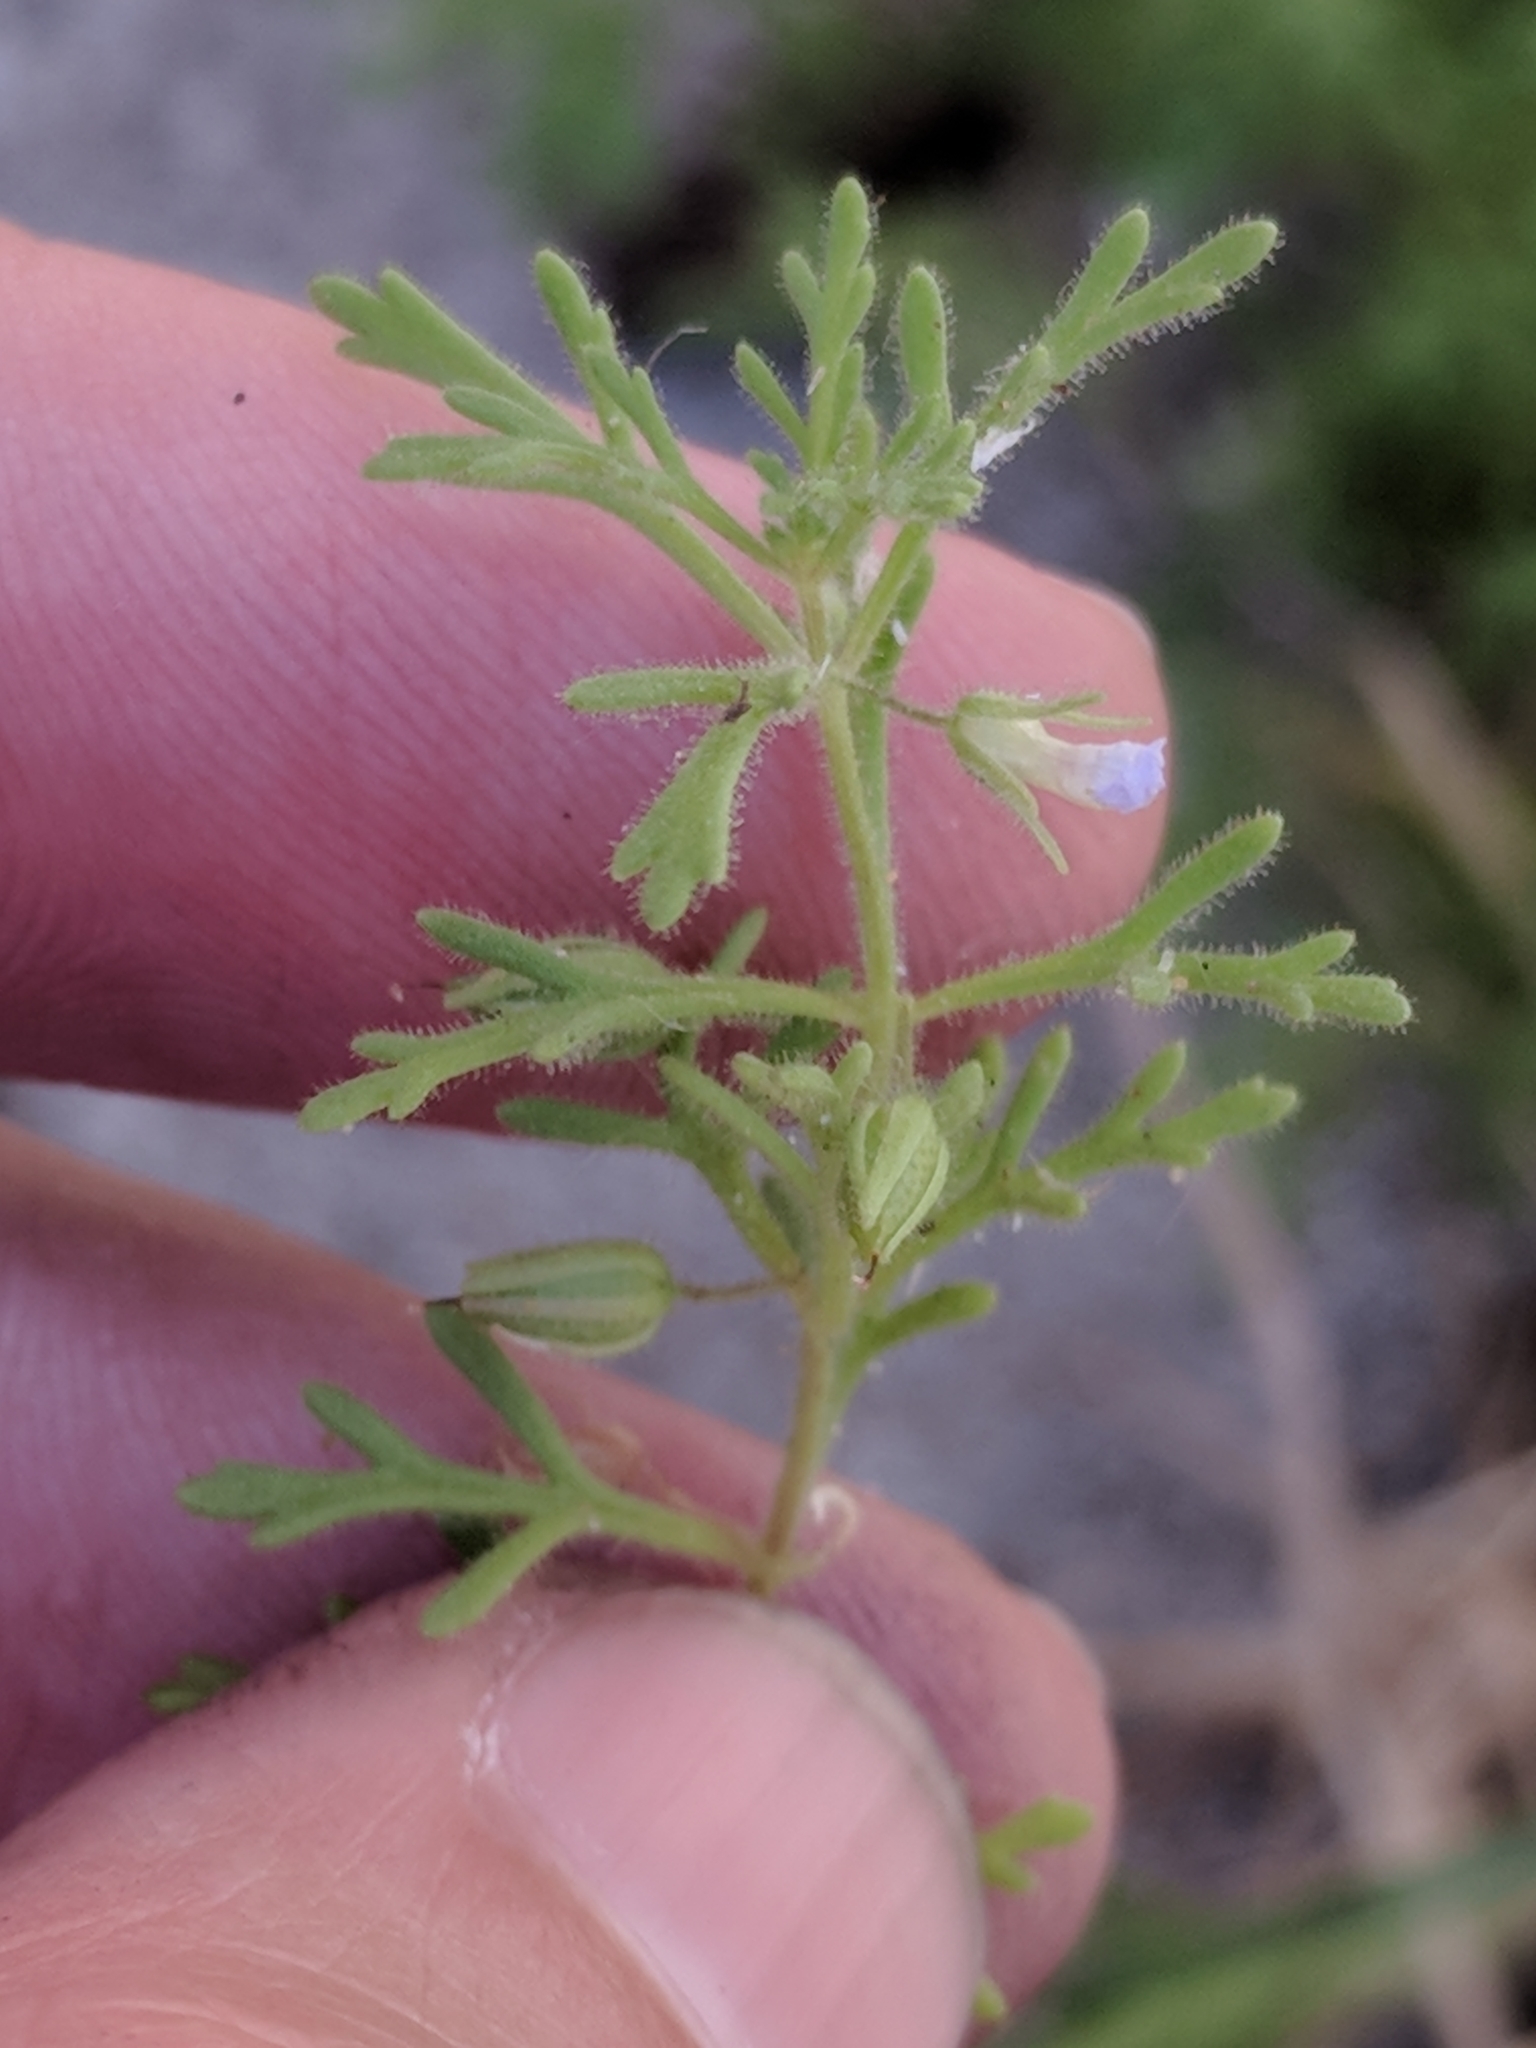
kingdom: Plantae
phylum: Tracheophyta
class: Magnoliopsida
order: Lamiales
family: Plantaginaceae
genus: Leucospora
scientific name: Leucospora multifida
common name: Narrow-leaf paleseed
